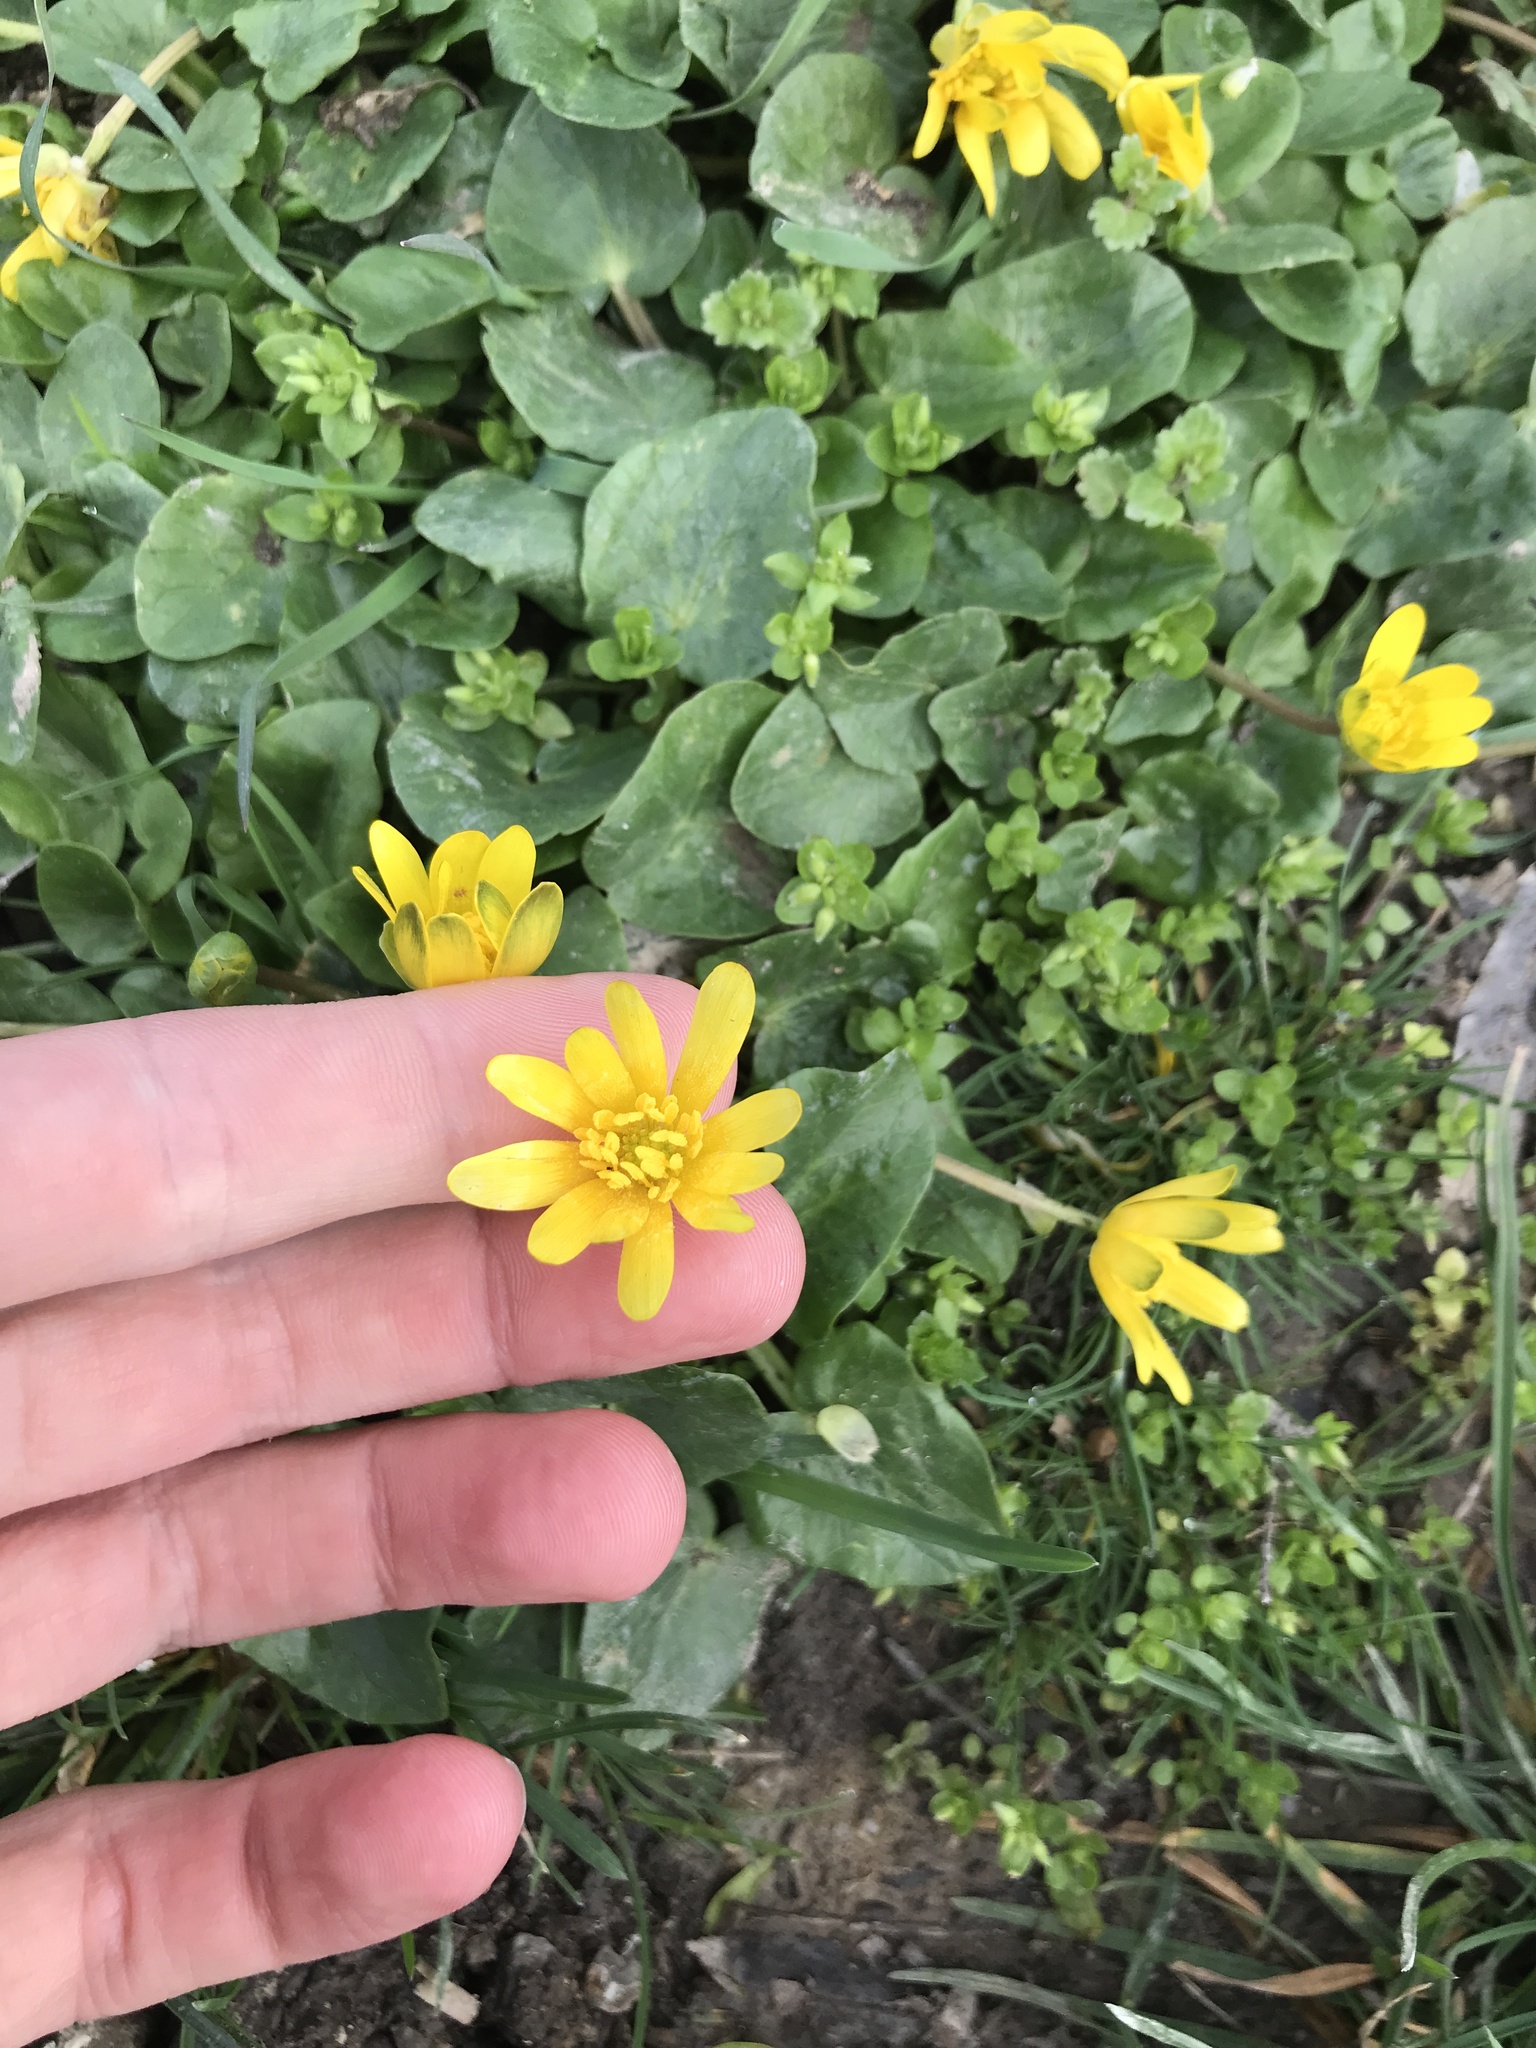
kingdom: Plantae
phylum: Tracheophyta
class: Magnoliopsida
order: Ranunculales
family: Ranunculaceae
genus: Ficaria
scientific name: Ficaria verna
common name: Lesser celandine
